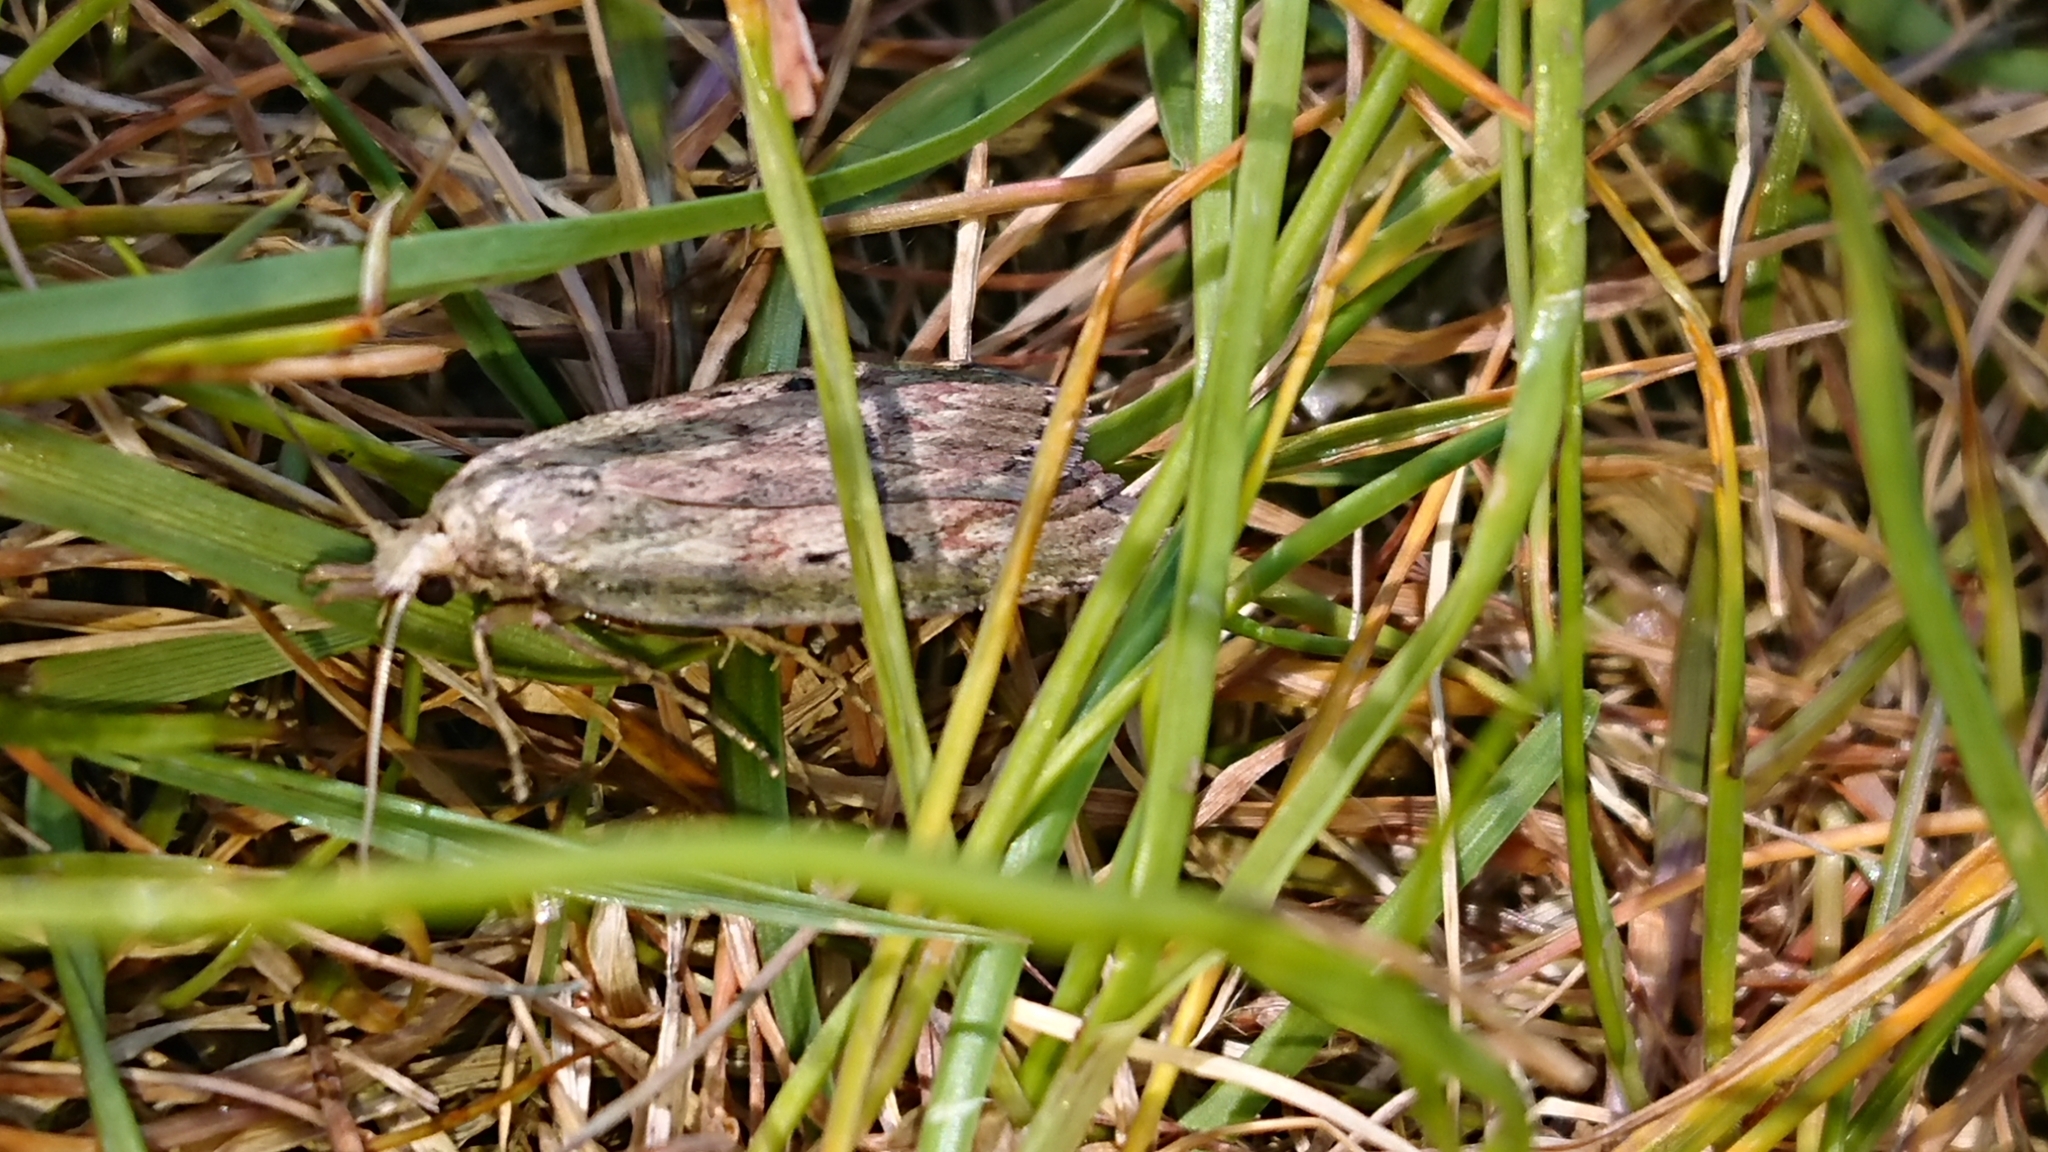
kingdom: Animalia
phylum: Arthropoda
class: Insecta
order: Lepidoptera
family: Pyralidae
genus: Aphomia
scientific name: Aphomia sociella
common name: Bee moth
